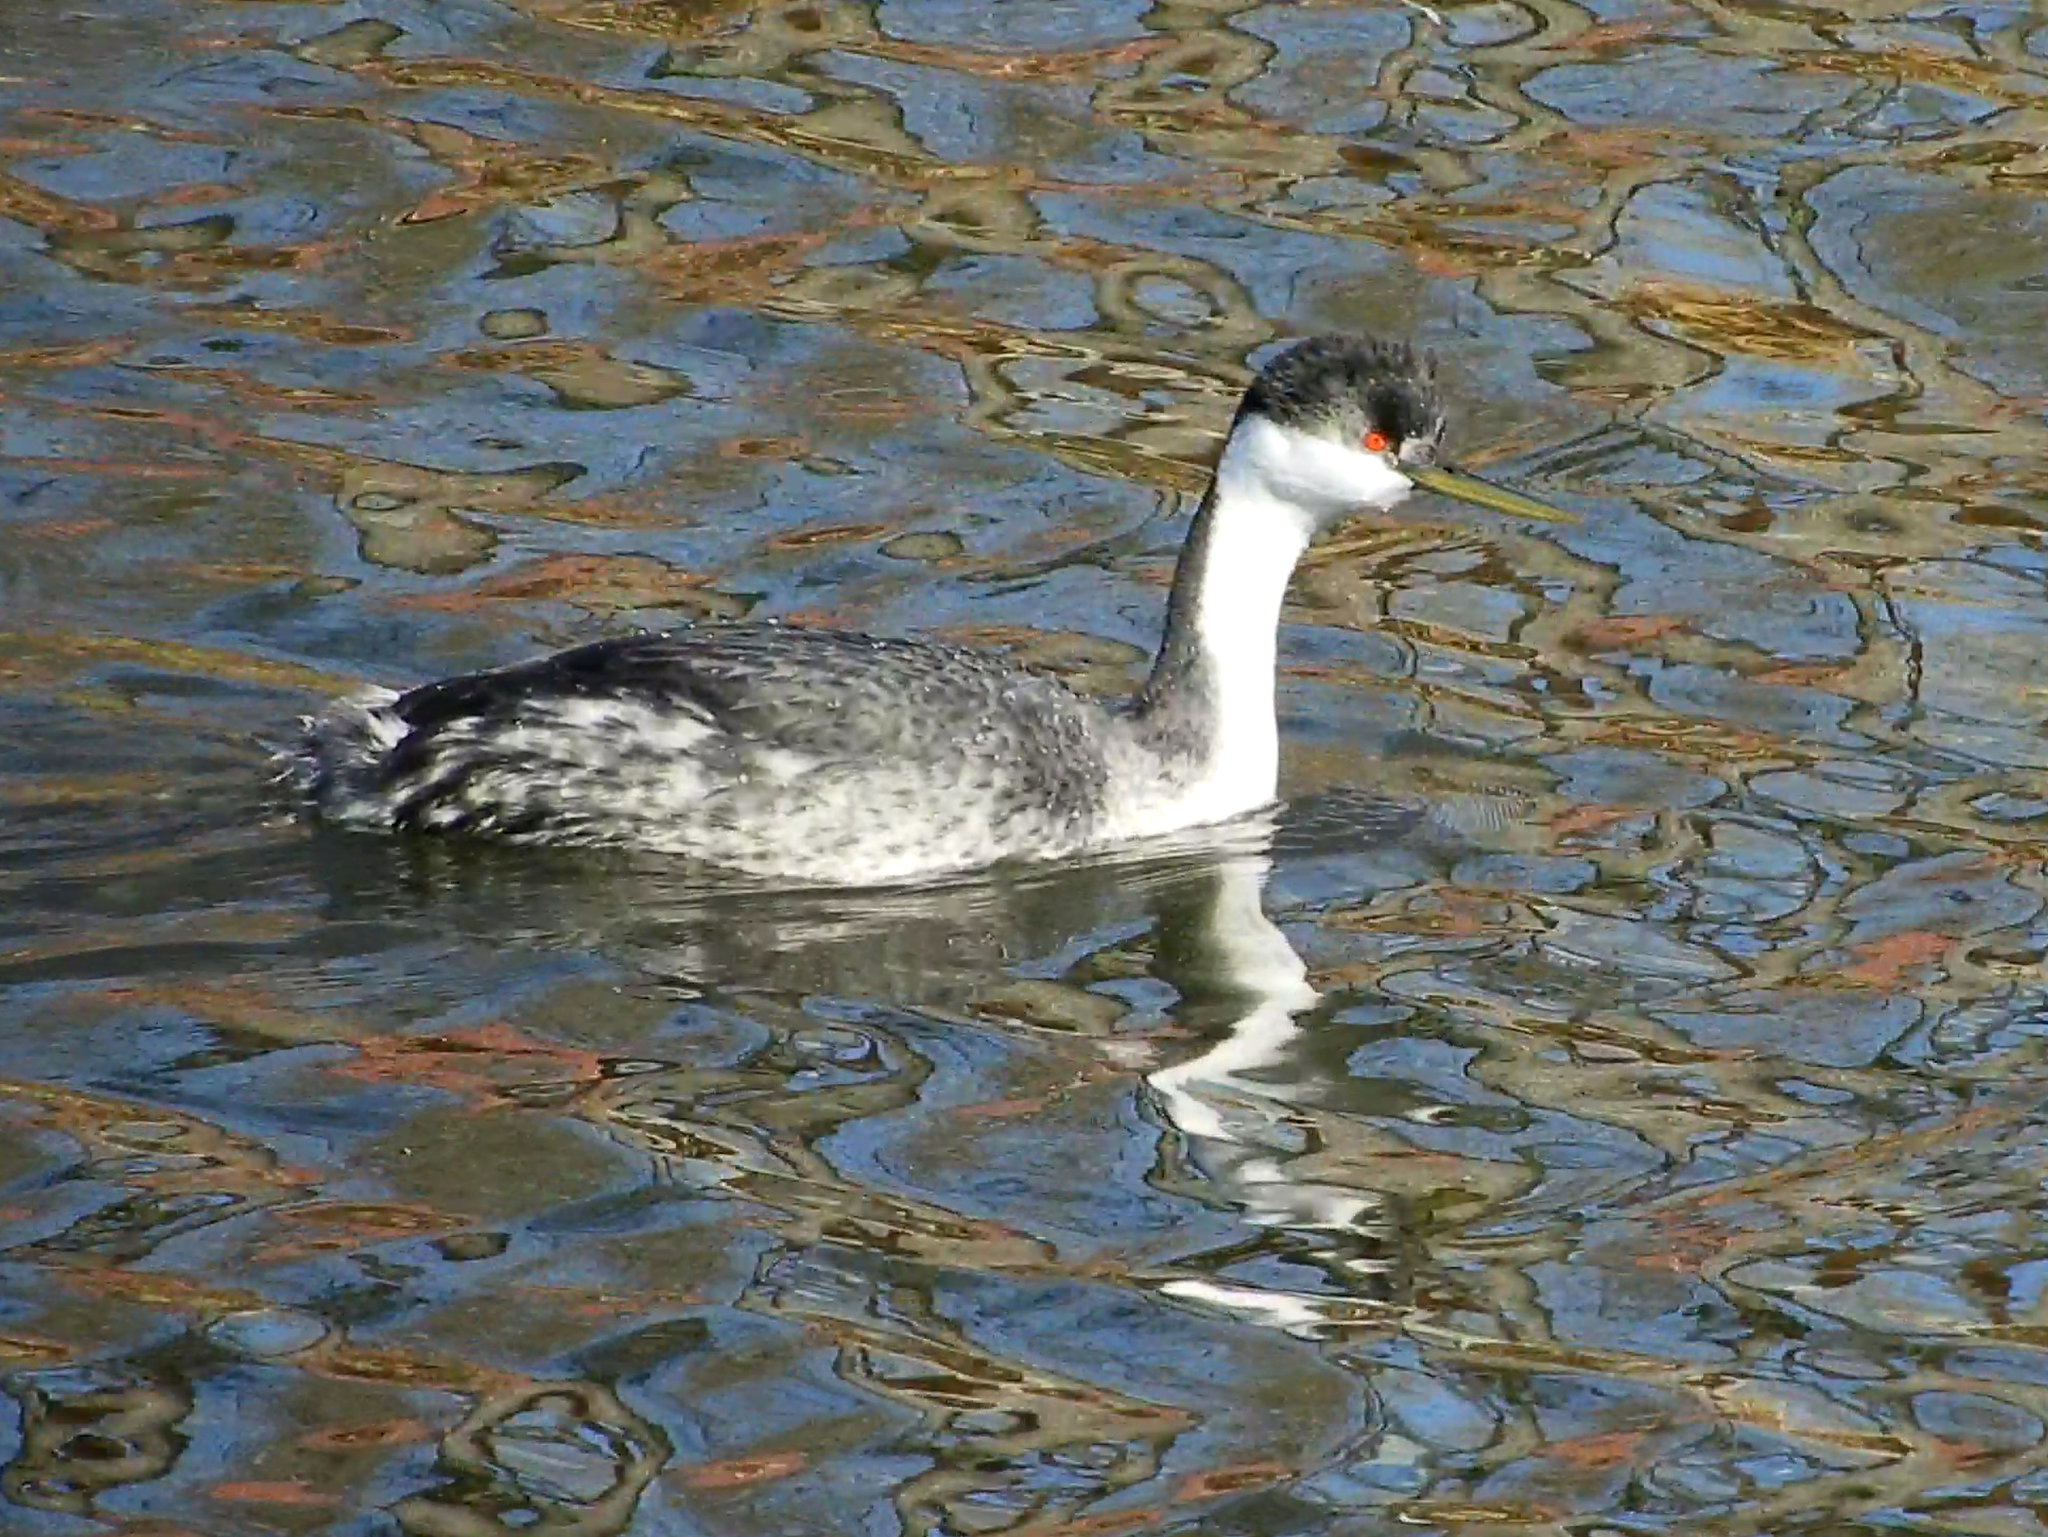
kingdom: Animalia
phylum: Chordata
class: Aves
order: Podicipediformes
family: Podicipedidae
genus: Aechmophorus
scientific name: Aechmophorus occidentalis
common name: Western grebe
